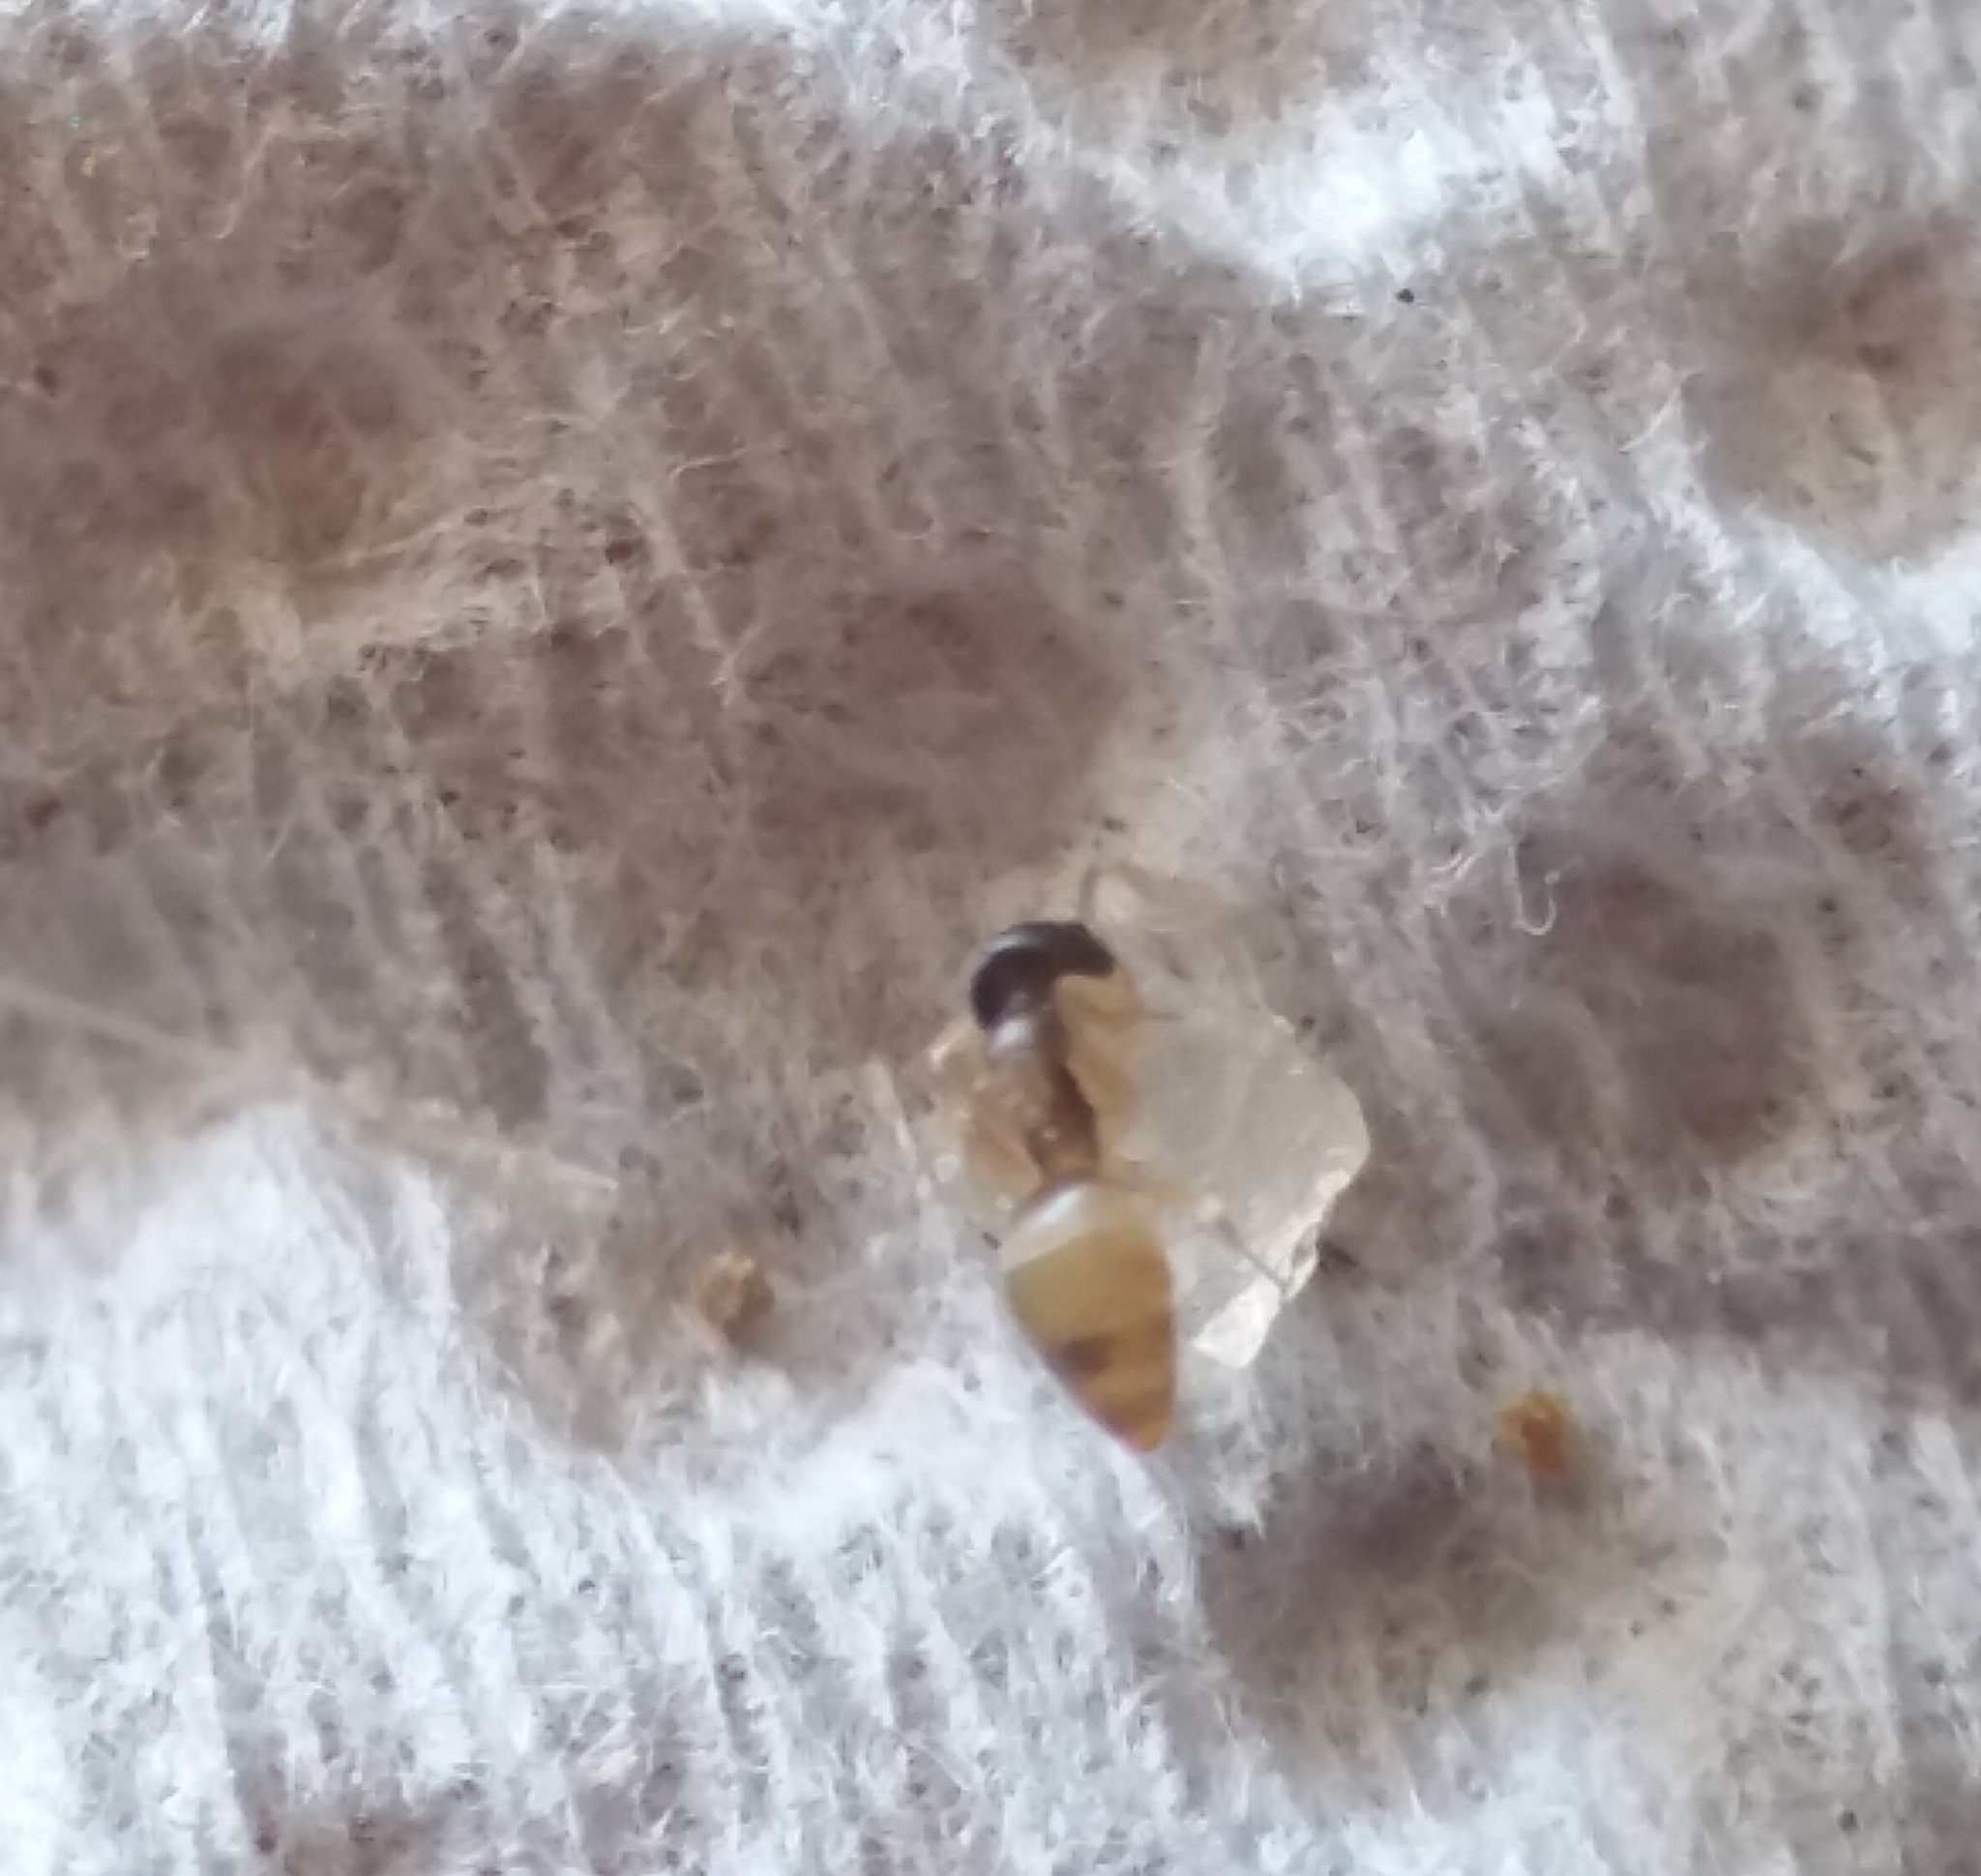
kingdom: Animalia
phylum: Arthropoda
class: Insecta
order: Hymenoptera
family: Formicidae
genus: Tapinoma
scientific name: Tapinoma melanocephalum
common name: Ghost ant
